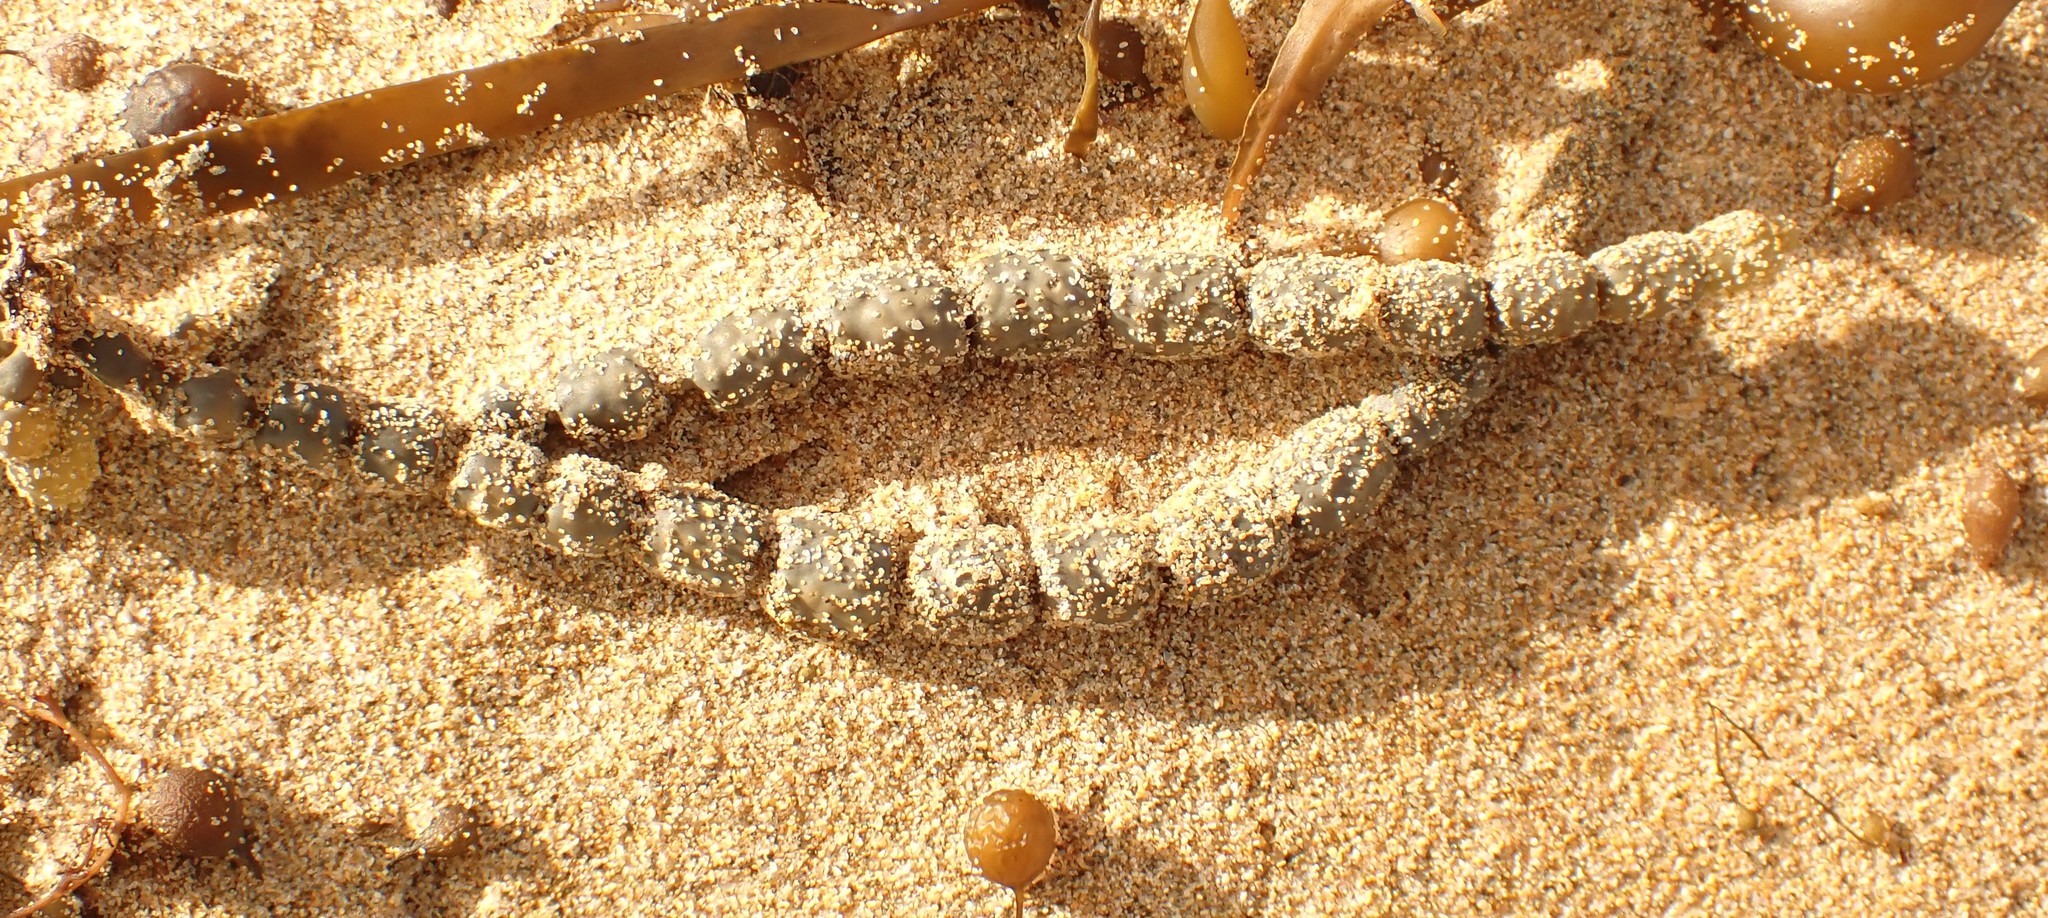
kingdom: Chromista
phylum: Ochrophyta
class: Phaeophyceae
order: Fucales
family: Hormosiraceae
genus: Hormosira
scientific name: Hormosira banksii
